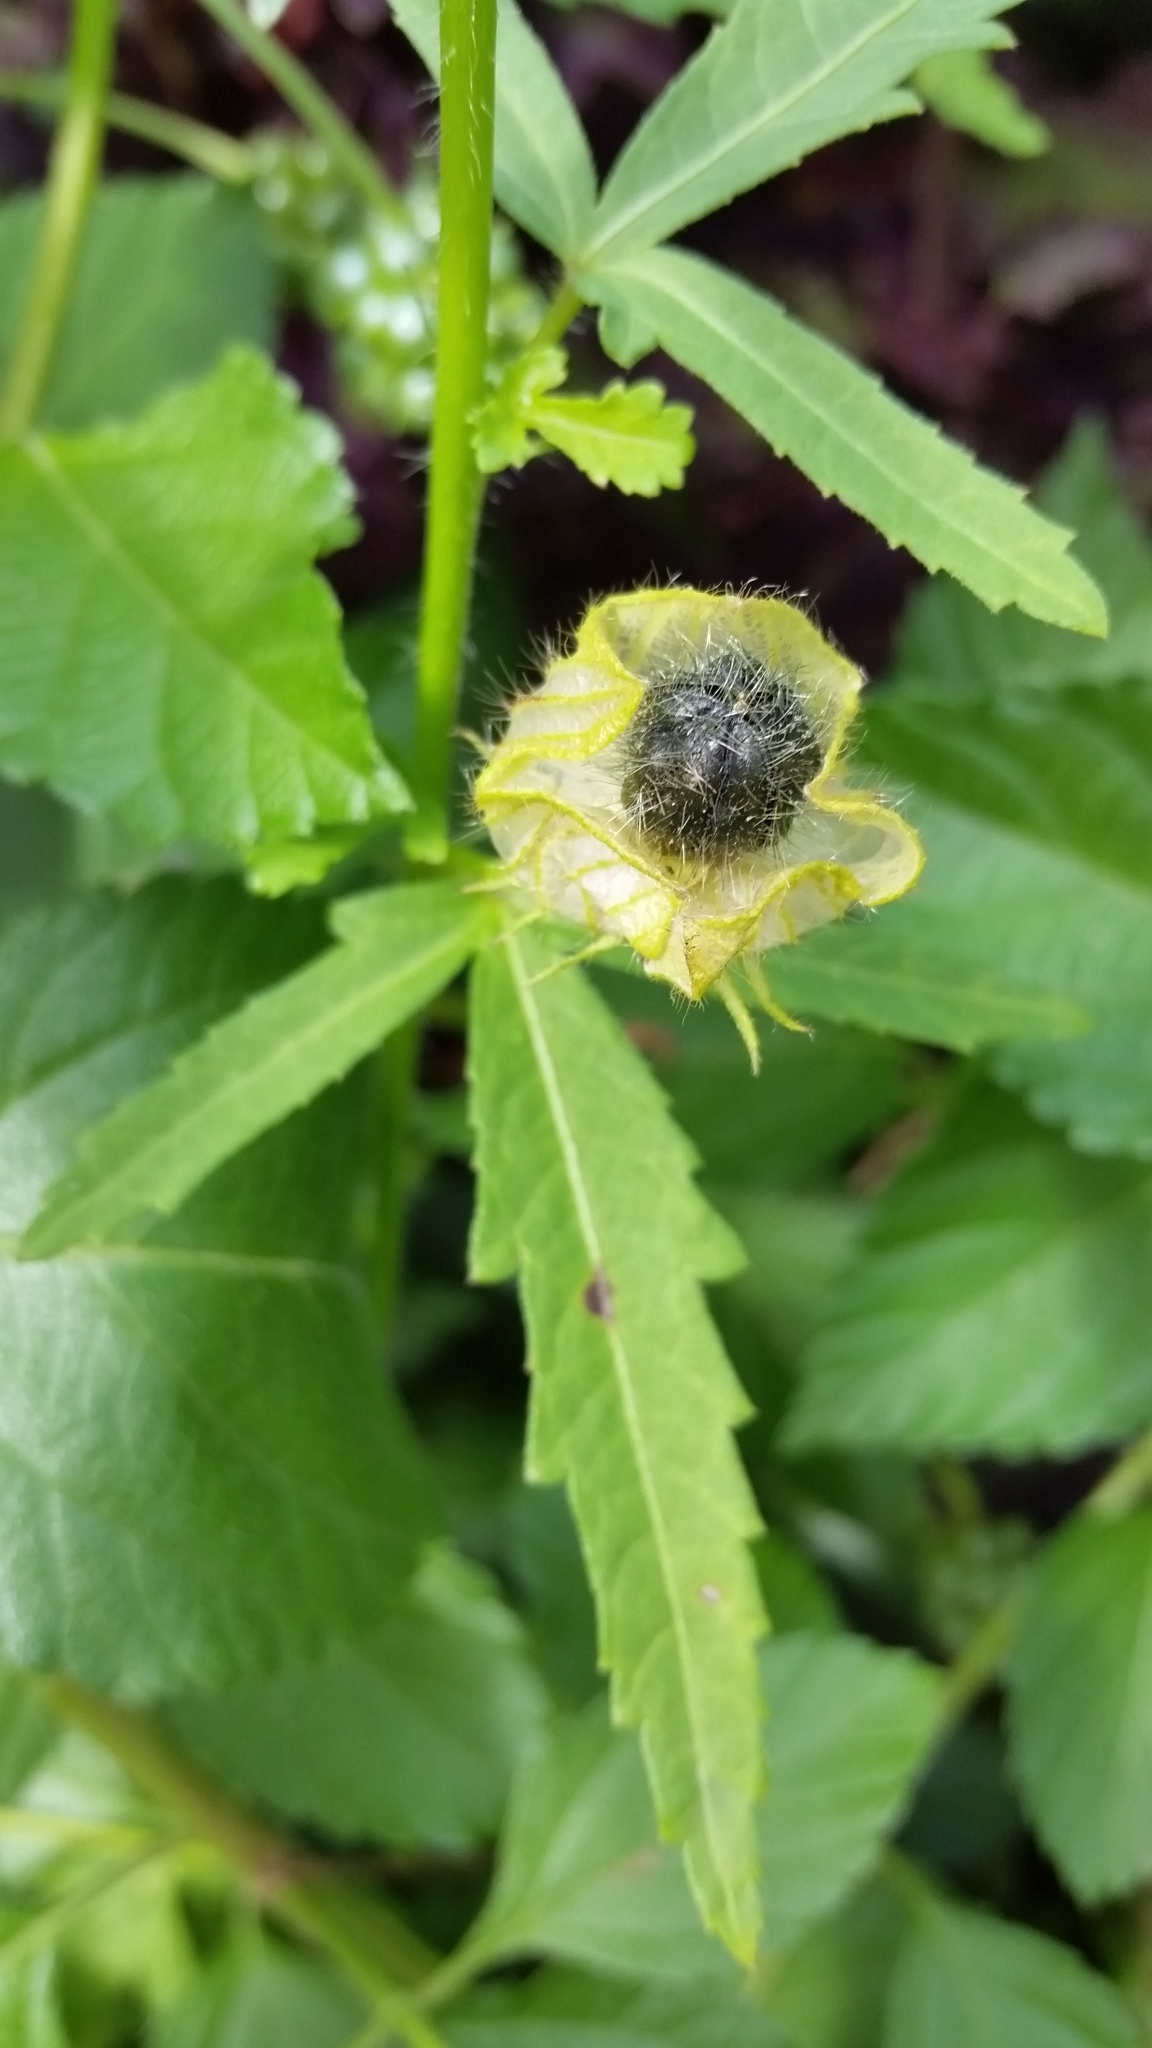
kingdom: Plantae
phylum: Tracheophyta
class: Magnoliopsida
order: Malvales
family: Malvaceae
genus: Hibiscus
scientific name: Hibiscus trionum
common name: Bladder ketmia
